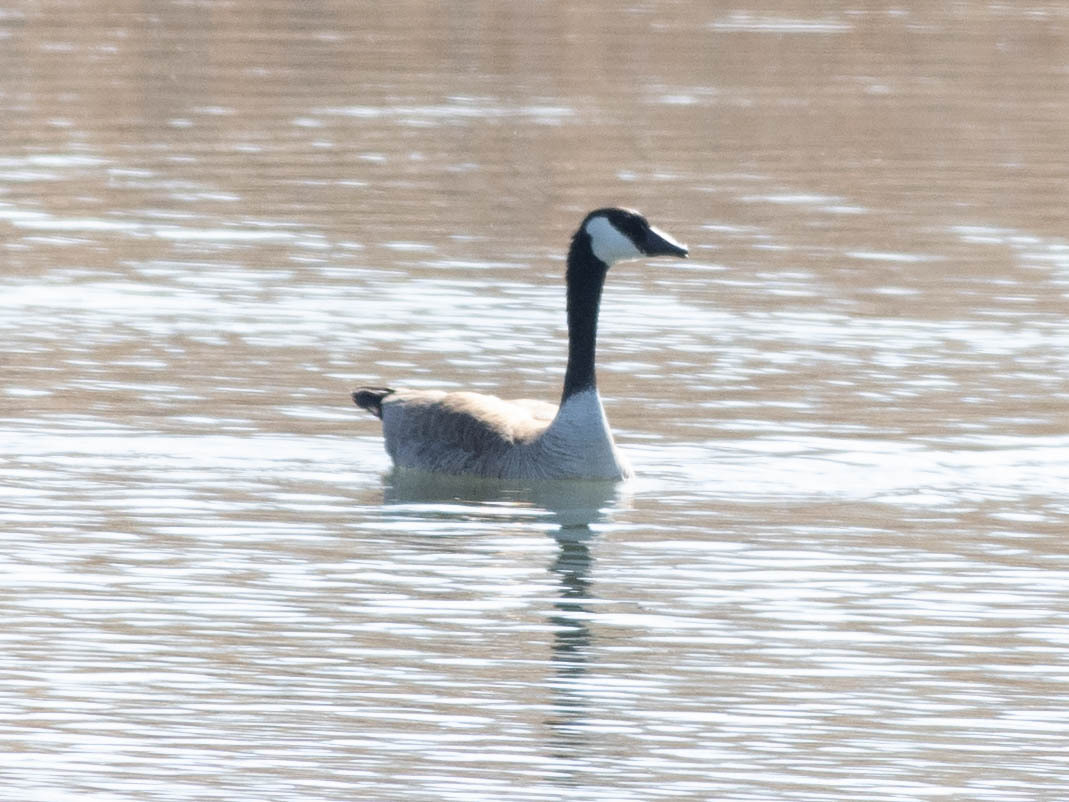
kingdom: Animalia
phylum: Chordata
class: Aves
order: Anseriformes
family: Anatidae
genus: Branta
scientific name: Branta canadensis
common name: Canada goose
